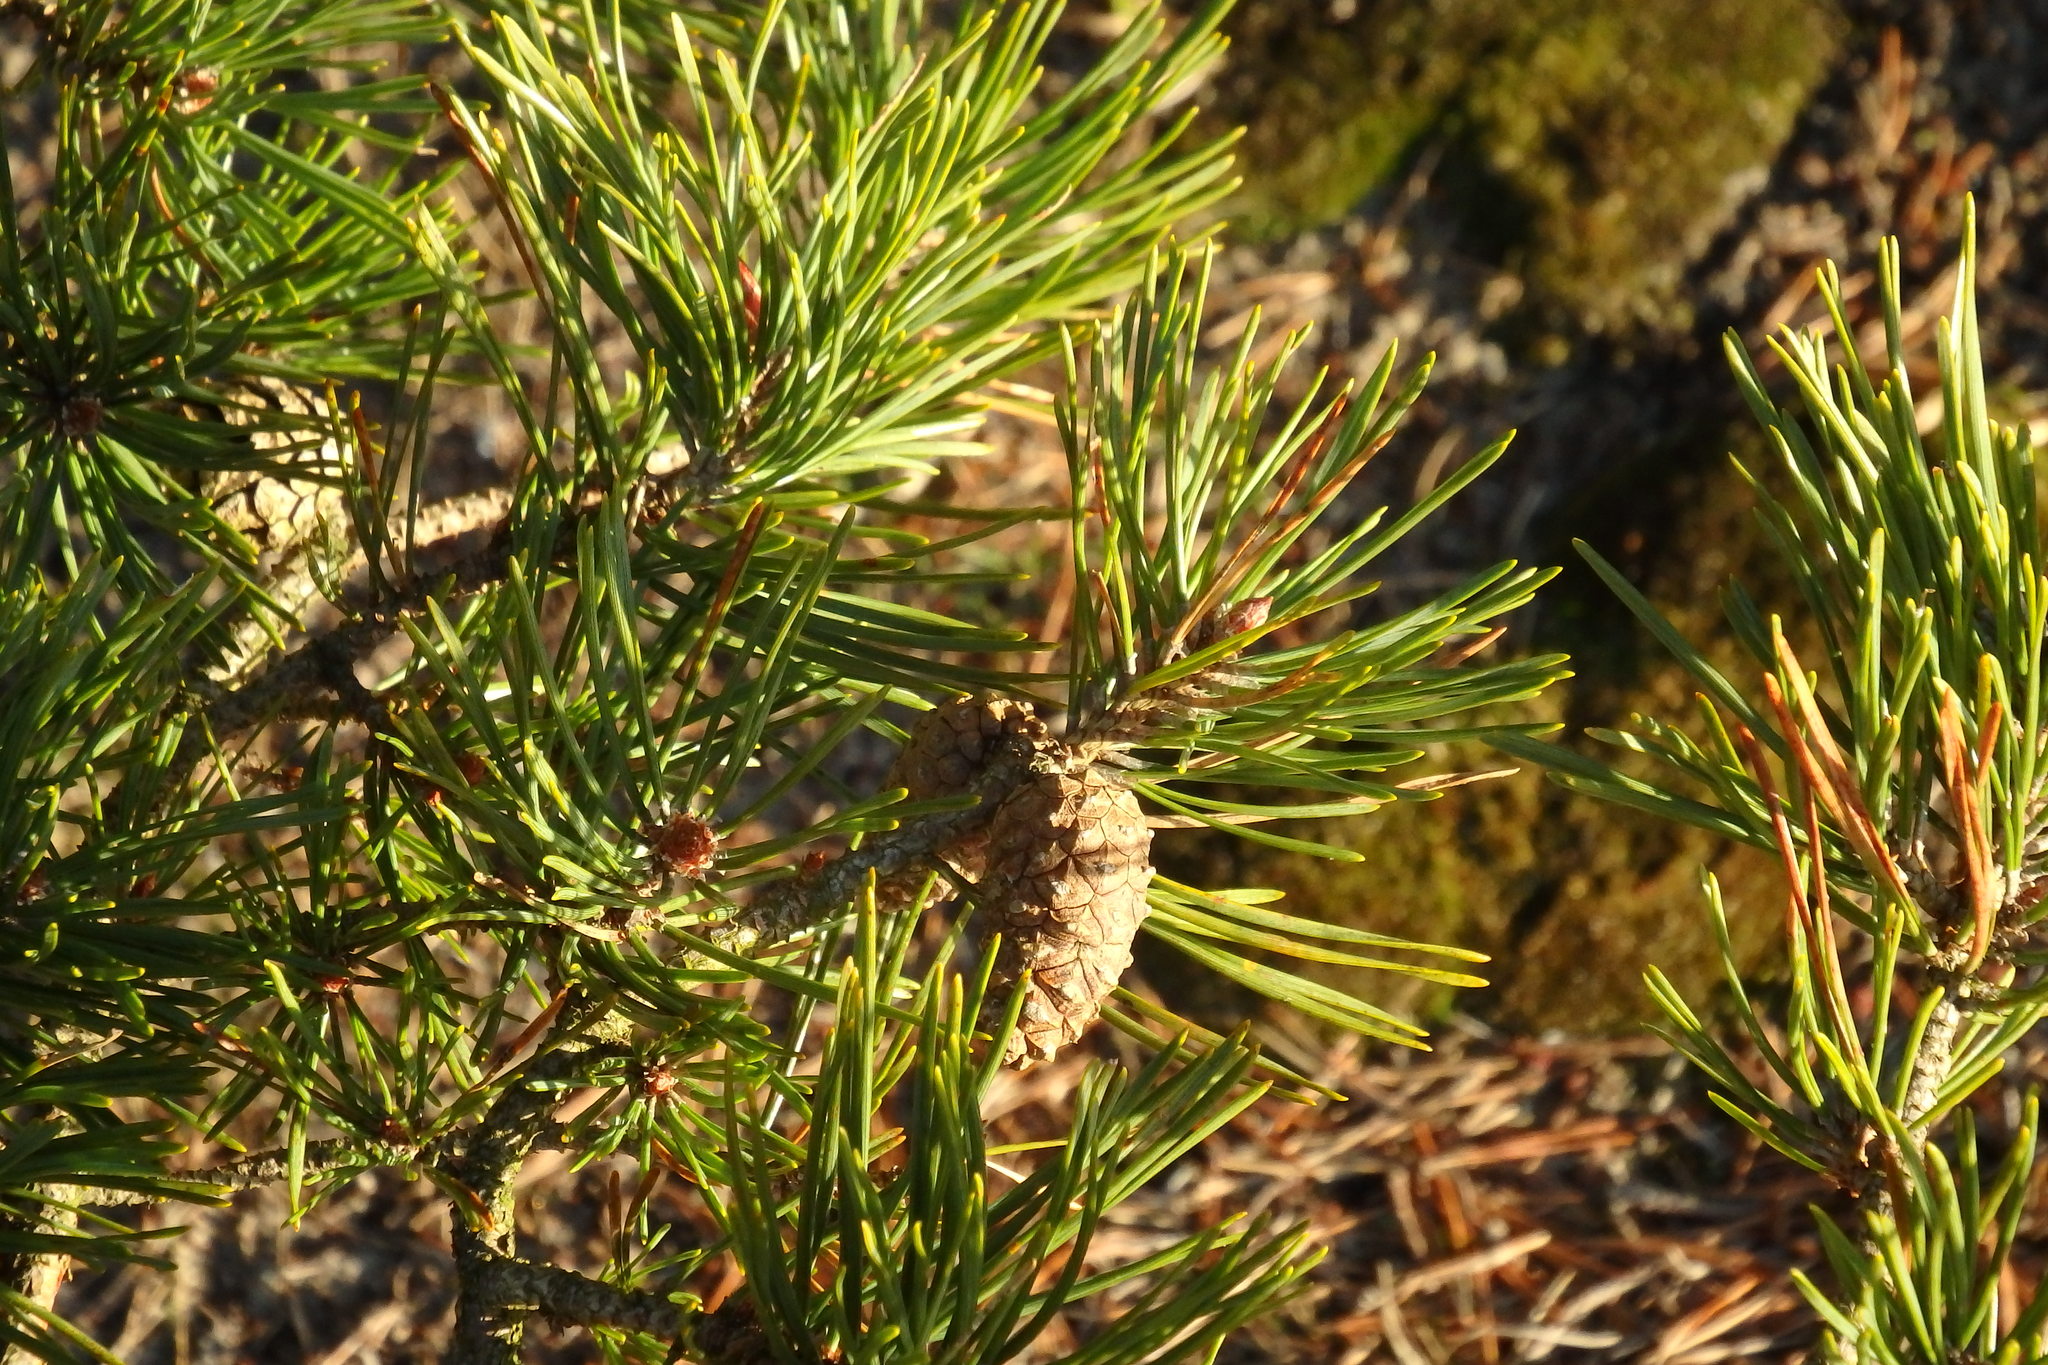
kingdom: Plantae
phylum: Tracheophyta
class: Pinopsida
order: Pinales
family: Pinaceae
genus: Pinus
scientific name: Pinus sylvestris
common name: Scots pine
